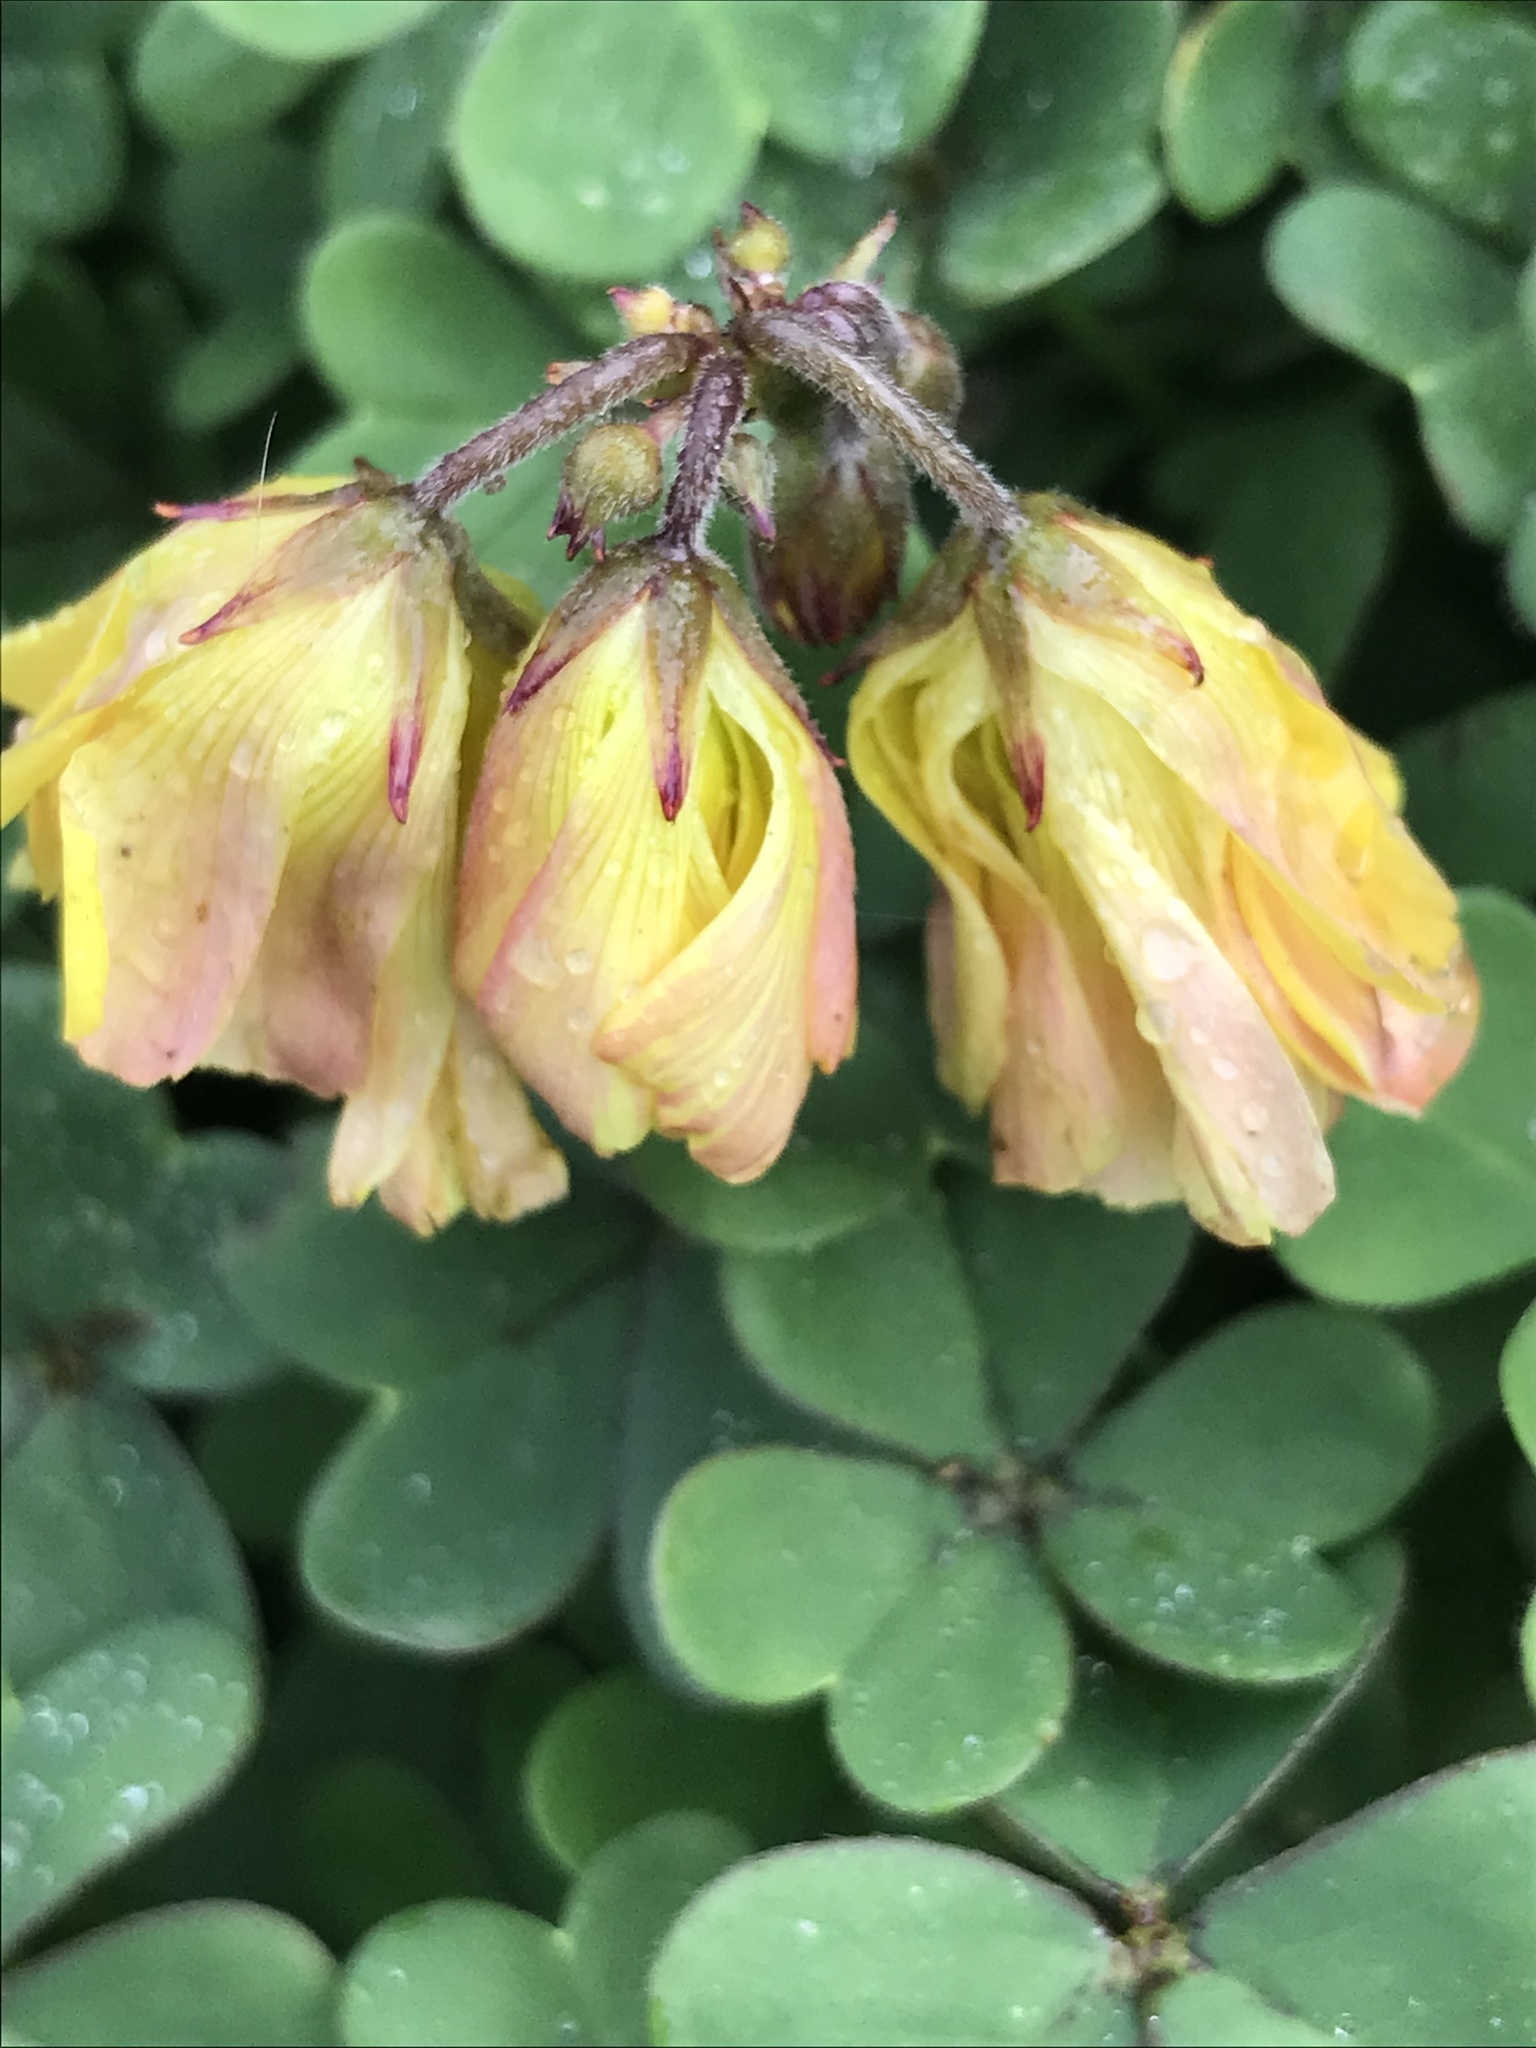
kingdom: Plantae
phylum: Tracheophyta
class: Magnoliopsida
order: Oxalidales
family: Oxalidaceae
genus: Oxalis
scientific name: Oxalis pes-caprae
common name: Bermuda-buttercup
